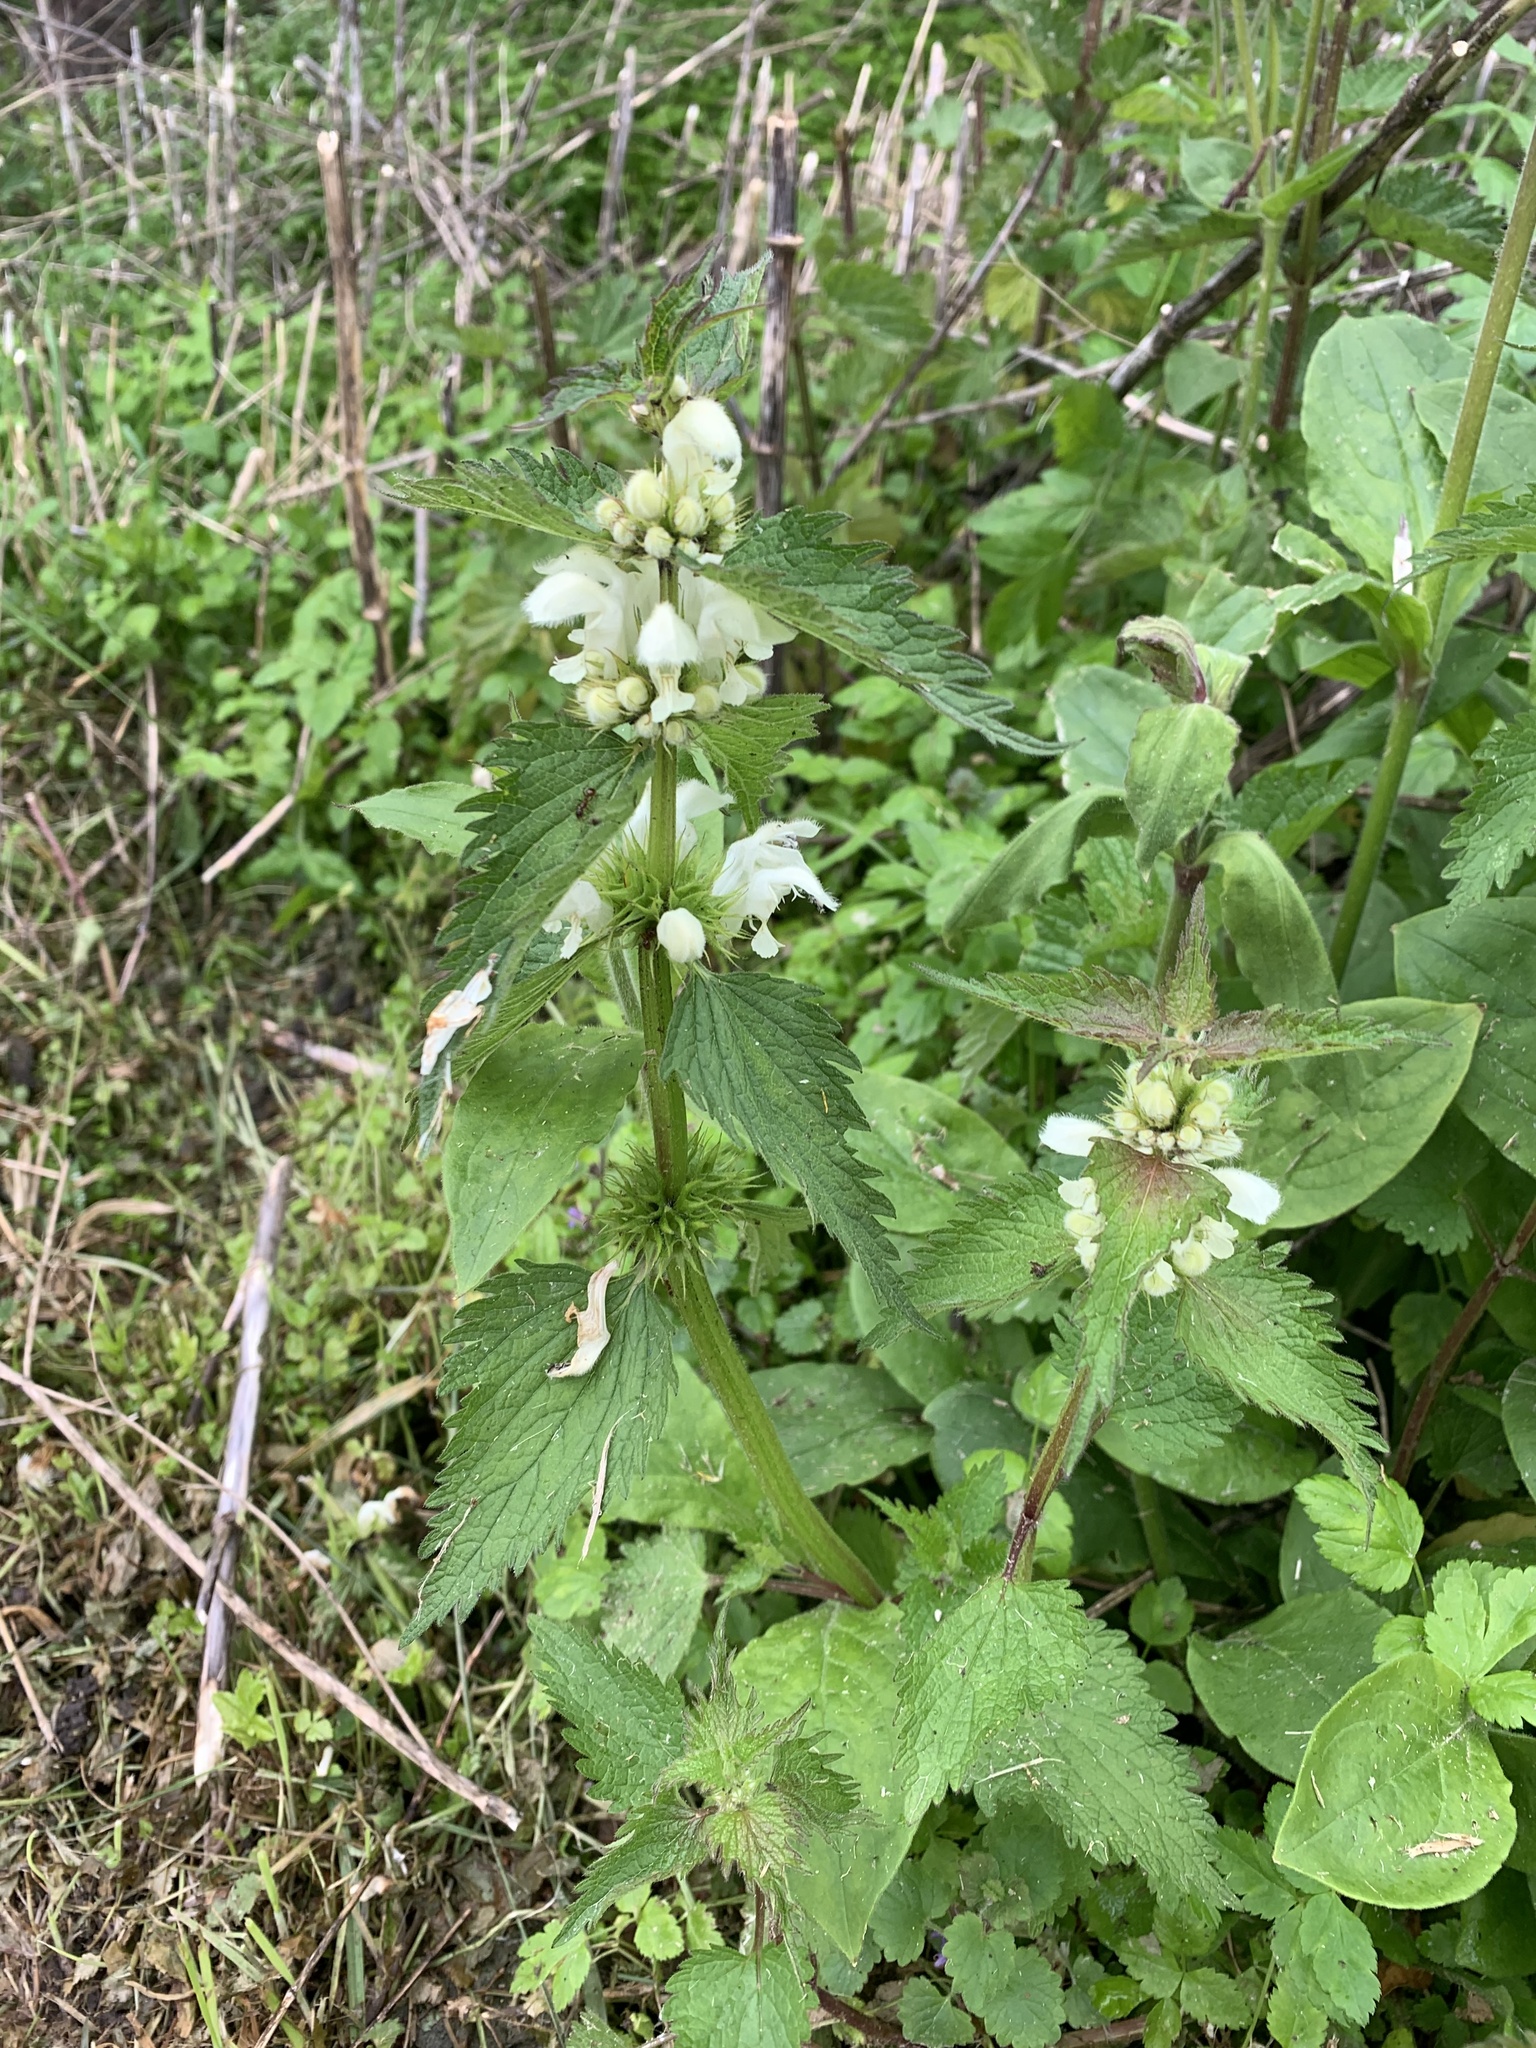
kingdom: Plantae
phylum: Tracheophyta
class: Magnoliopsida
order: Lamiales
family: Lamiaceae
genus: Lamium
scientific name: Lamium album
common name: White dead-nettle
